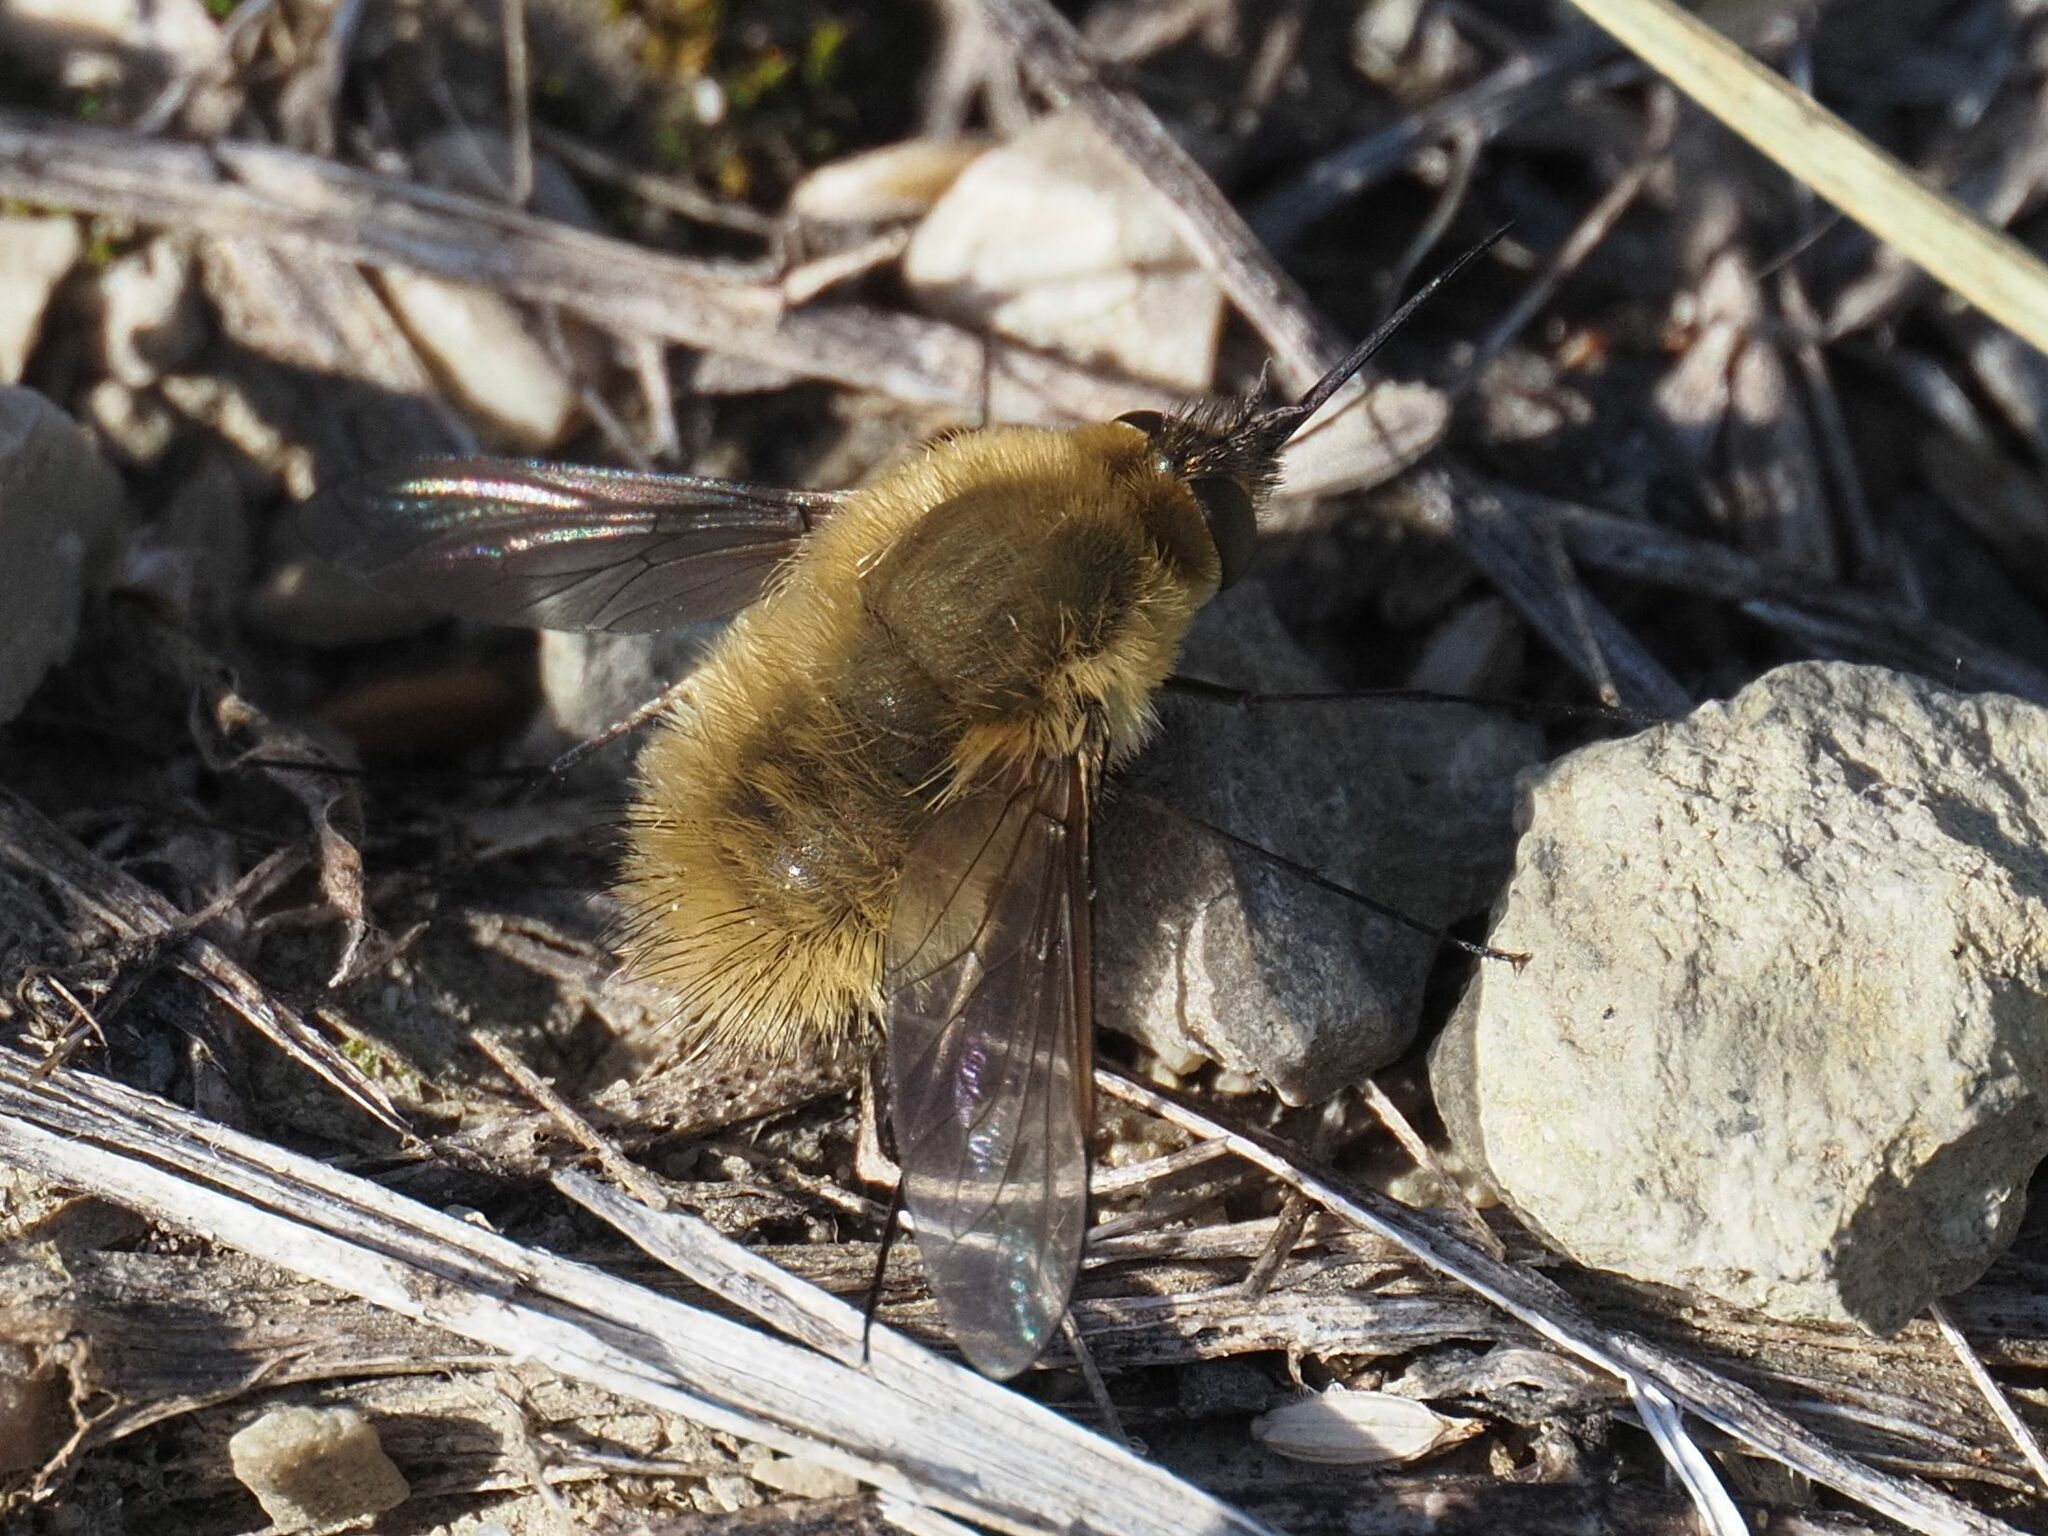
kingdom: Animalia
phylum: Arthropoda
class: Insecta
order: Diptera
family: Bombyliidae
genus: Systoechus
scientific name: Systoechus ctenopterus
